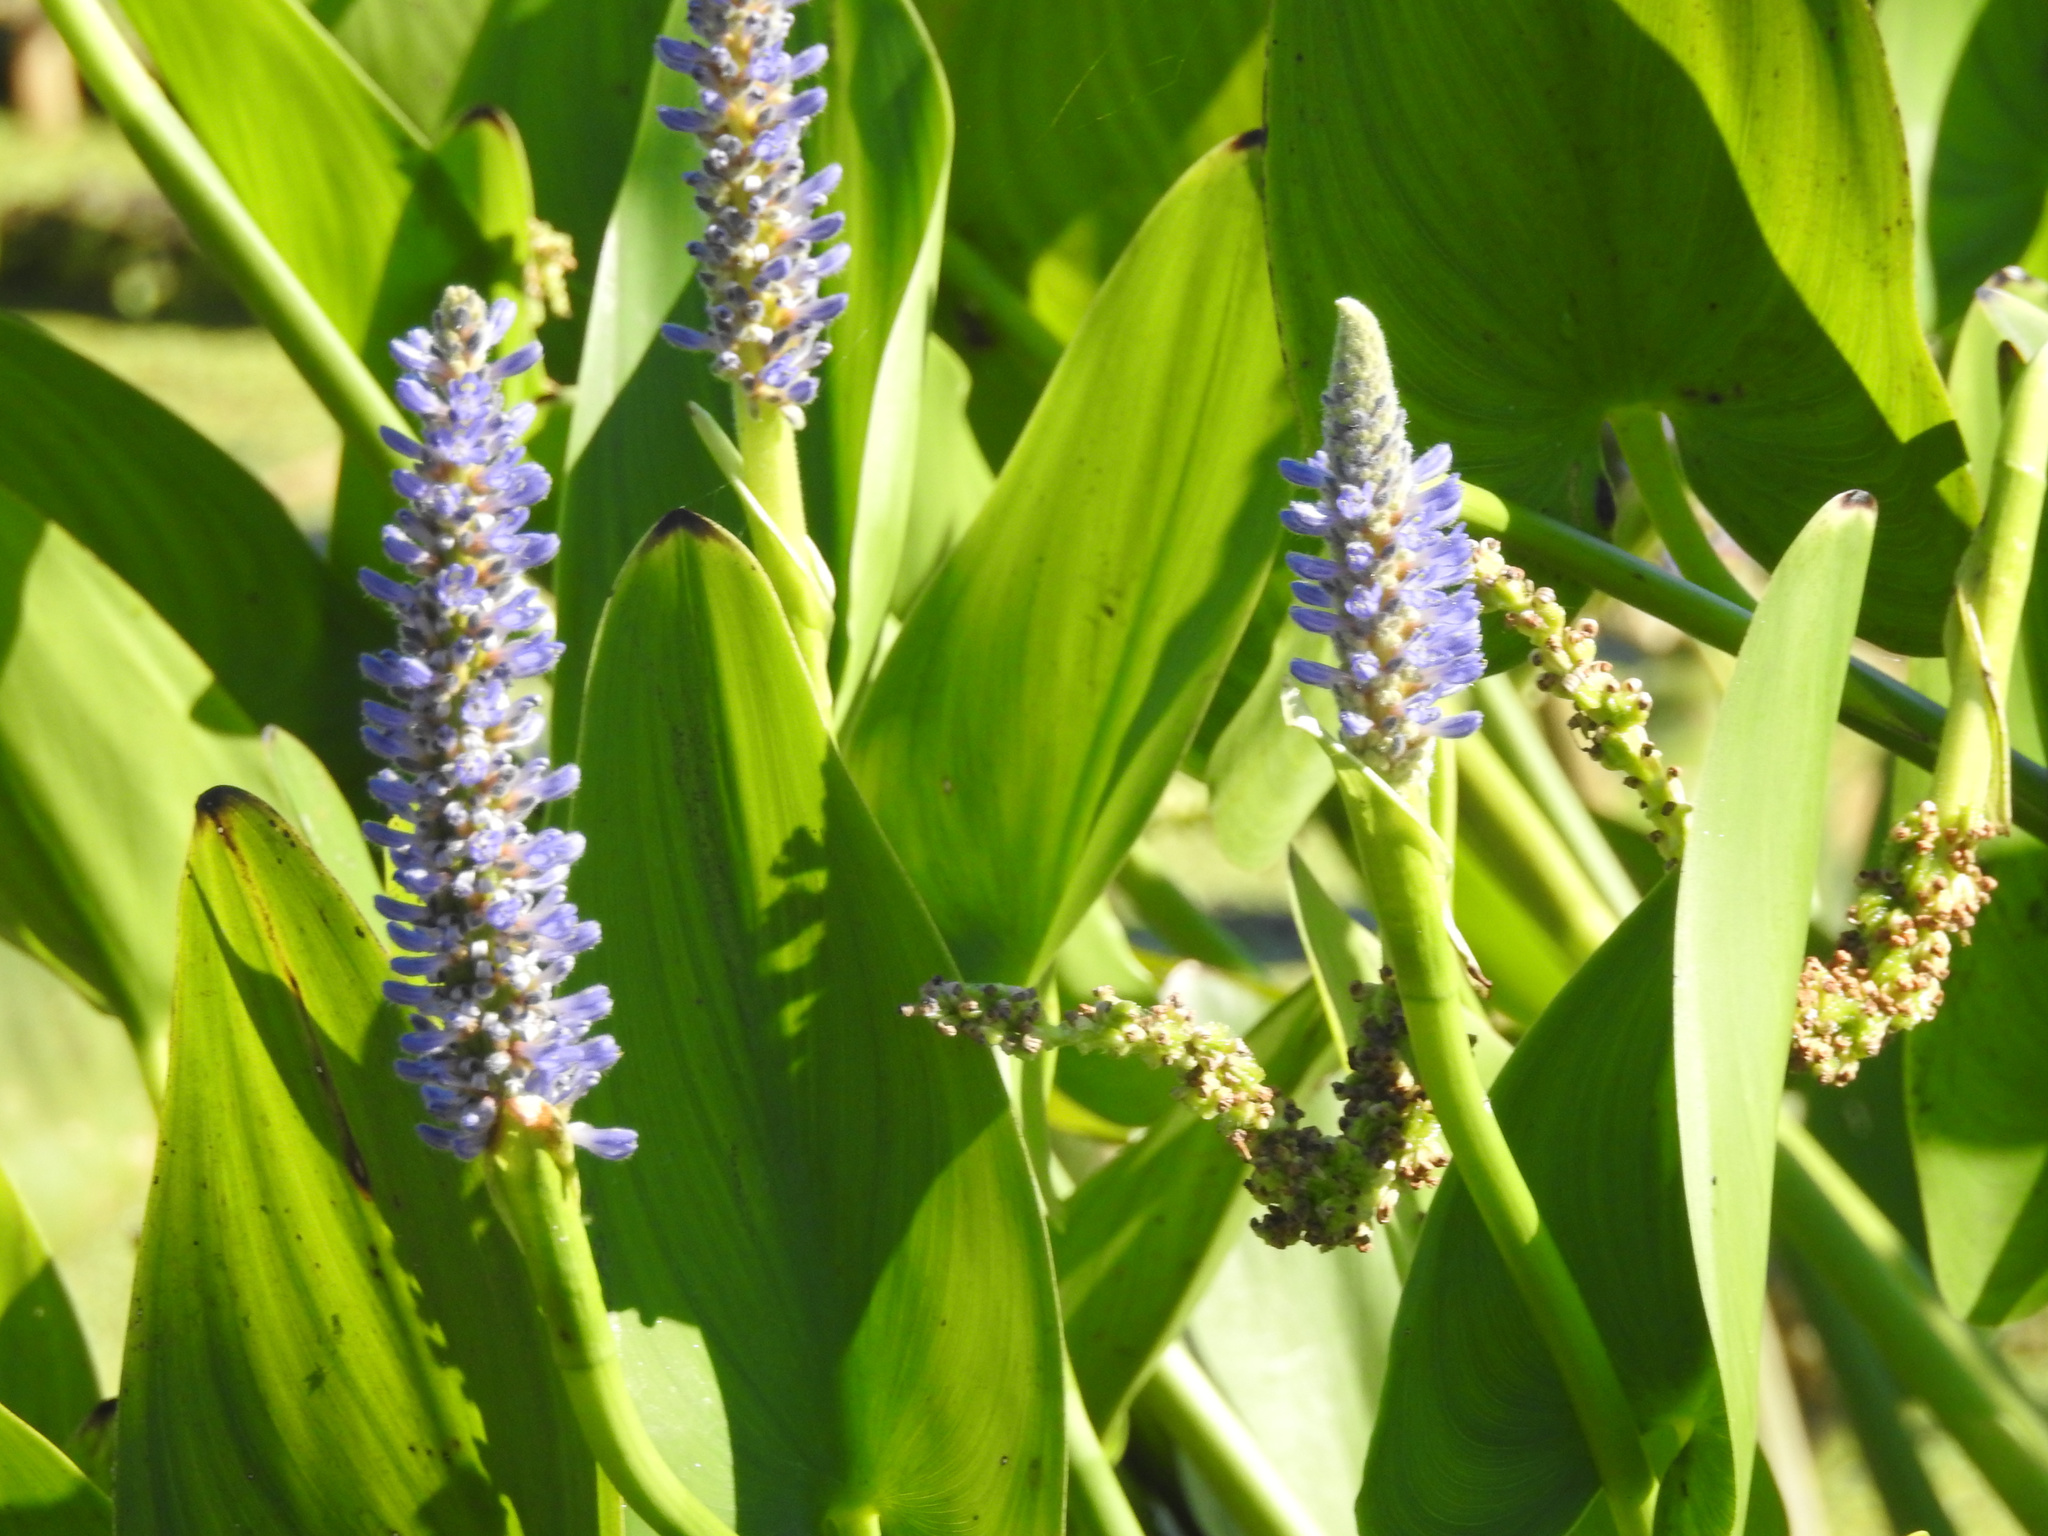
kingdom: Plantae
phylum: Tracheophyta
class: Liliopsida
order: Commelinales
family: Pontederiaceae
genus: Pontederia
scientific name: Pontederia cordata
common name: Pickerelweed
